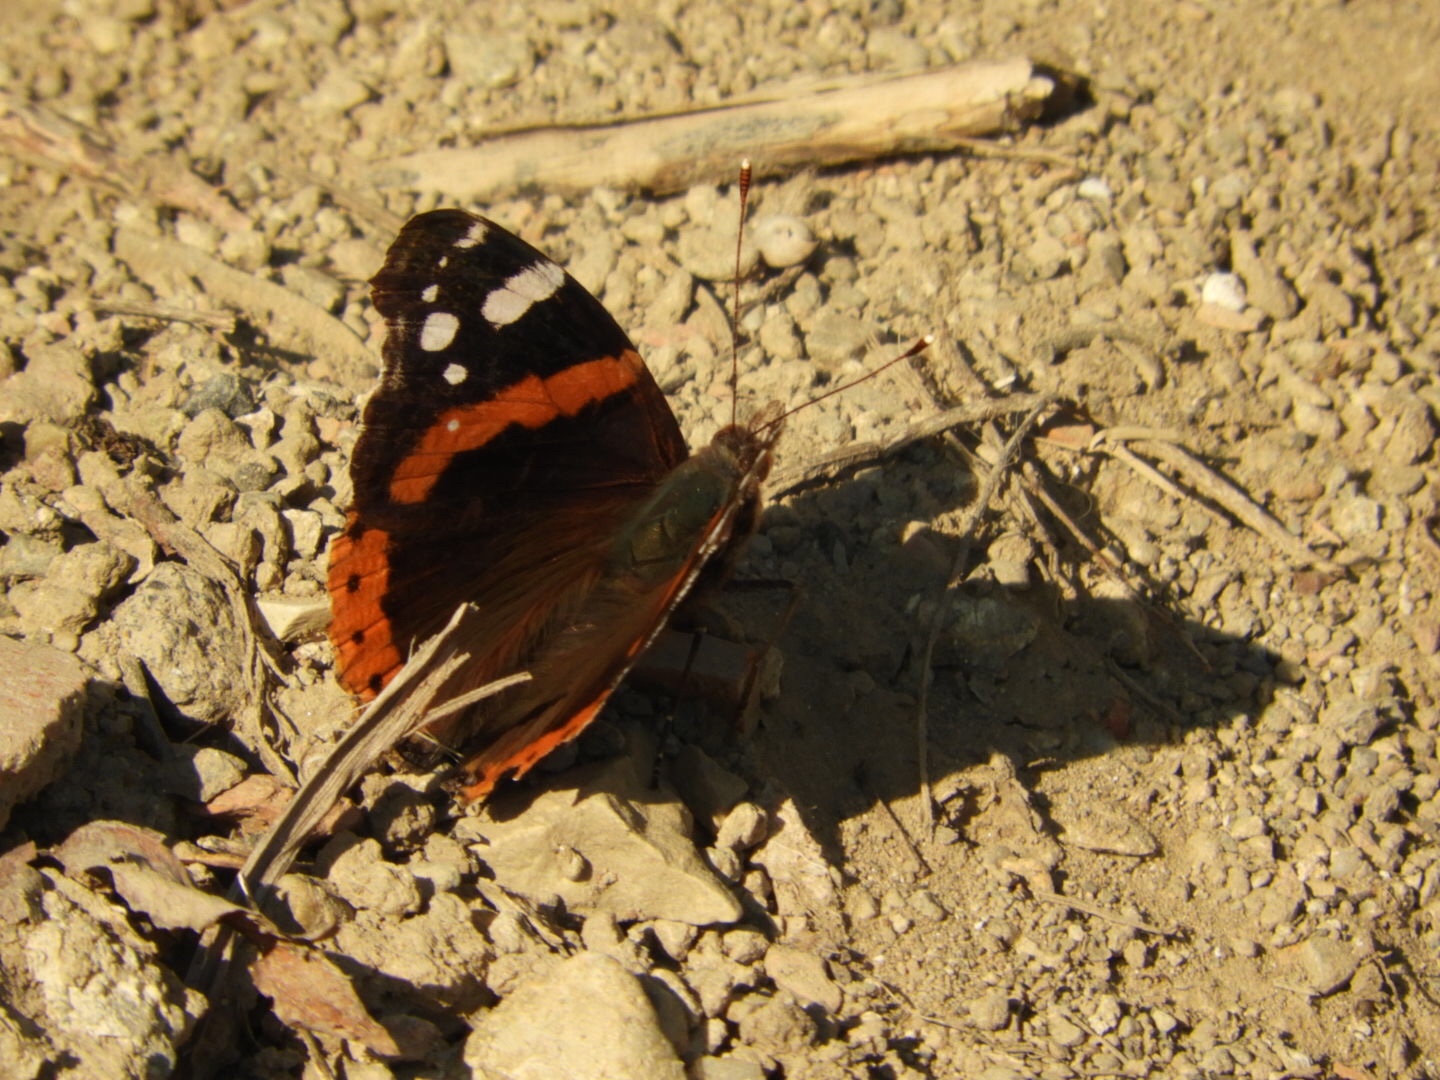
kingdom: Animalia
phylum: Arthropoda
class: Insecta
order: Lepidoptera
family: Nymphalidae
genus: Vanessa
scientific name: Vanessa atalanta
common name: Red admiral
